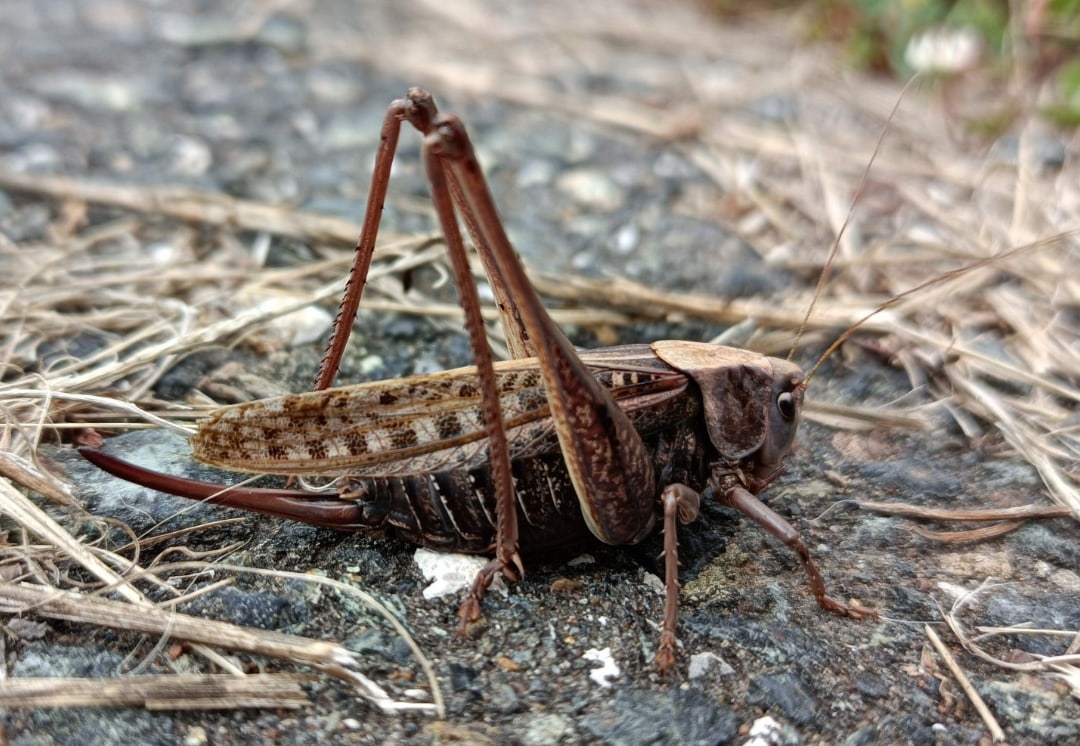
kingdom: Animalia
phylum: Arthropoda
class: Insecta
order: Orthoptera
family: Tettigoniidae
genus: Decticus
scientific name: Decticus verrucivorus
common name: Wart-biter
